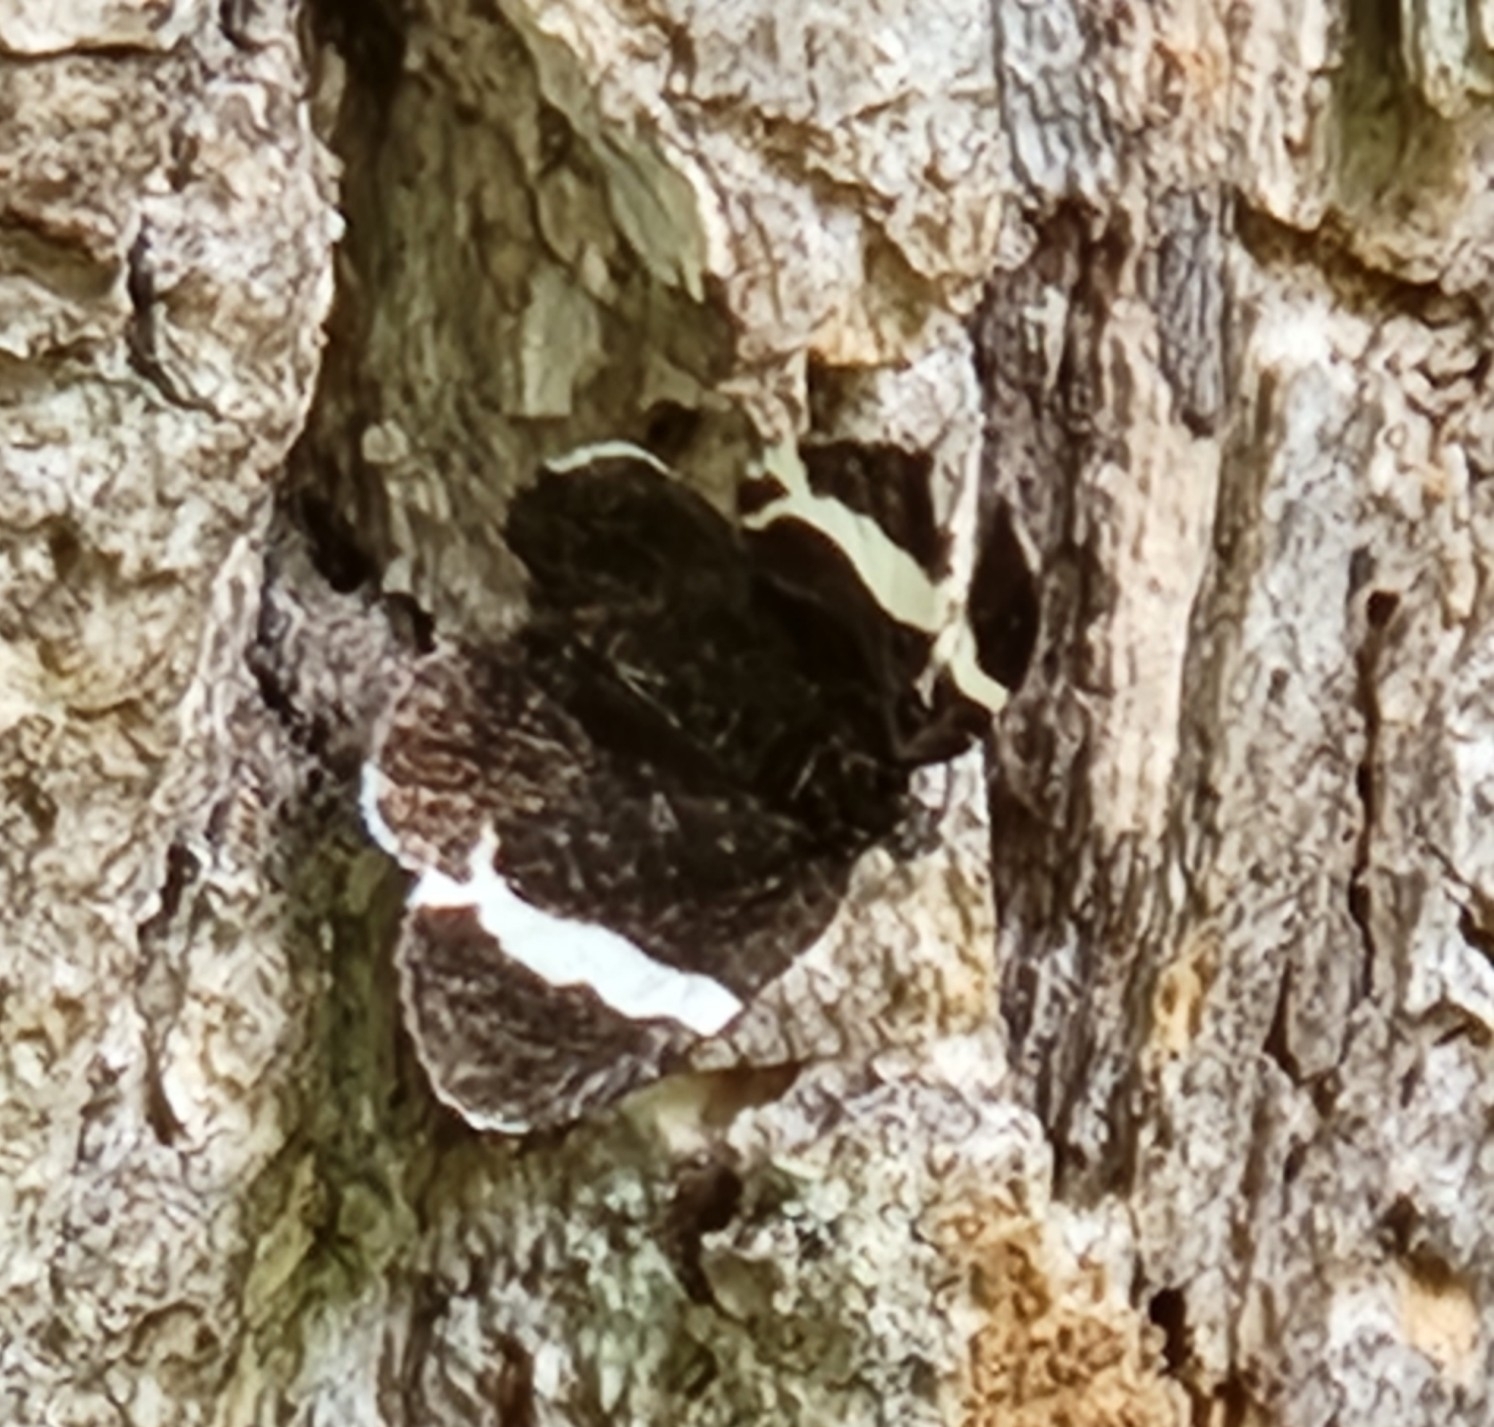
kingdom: Animalia
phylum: Arthropoda
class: Insecta
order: Lepidoptera
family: Geometridae
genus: Trichodezia
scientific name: Trichodezia albovittata
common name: White striped black
